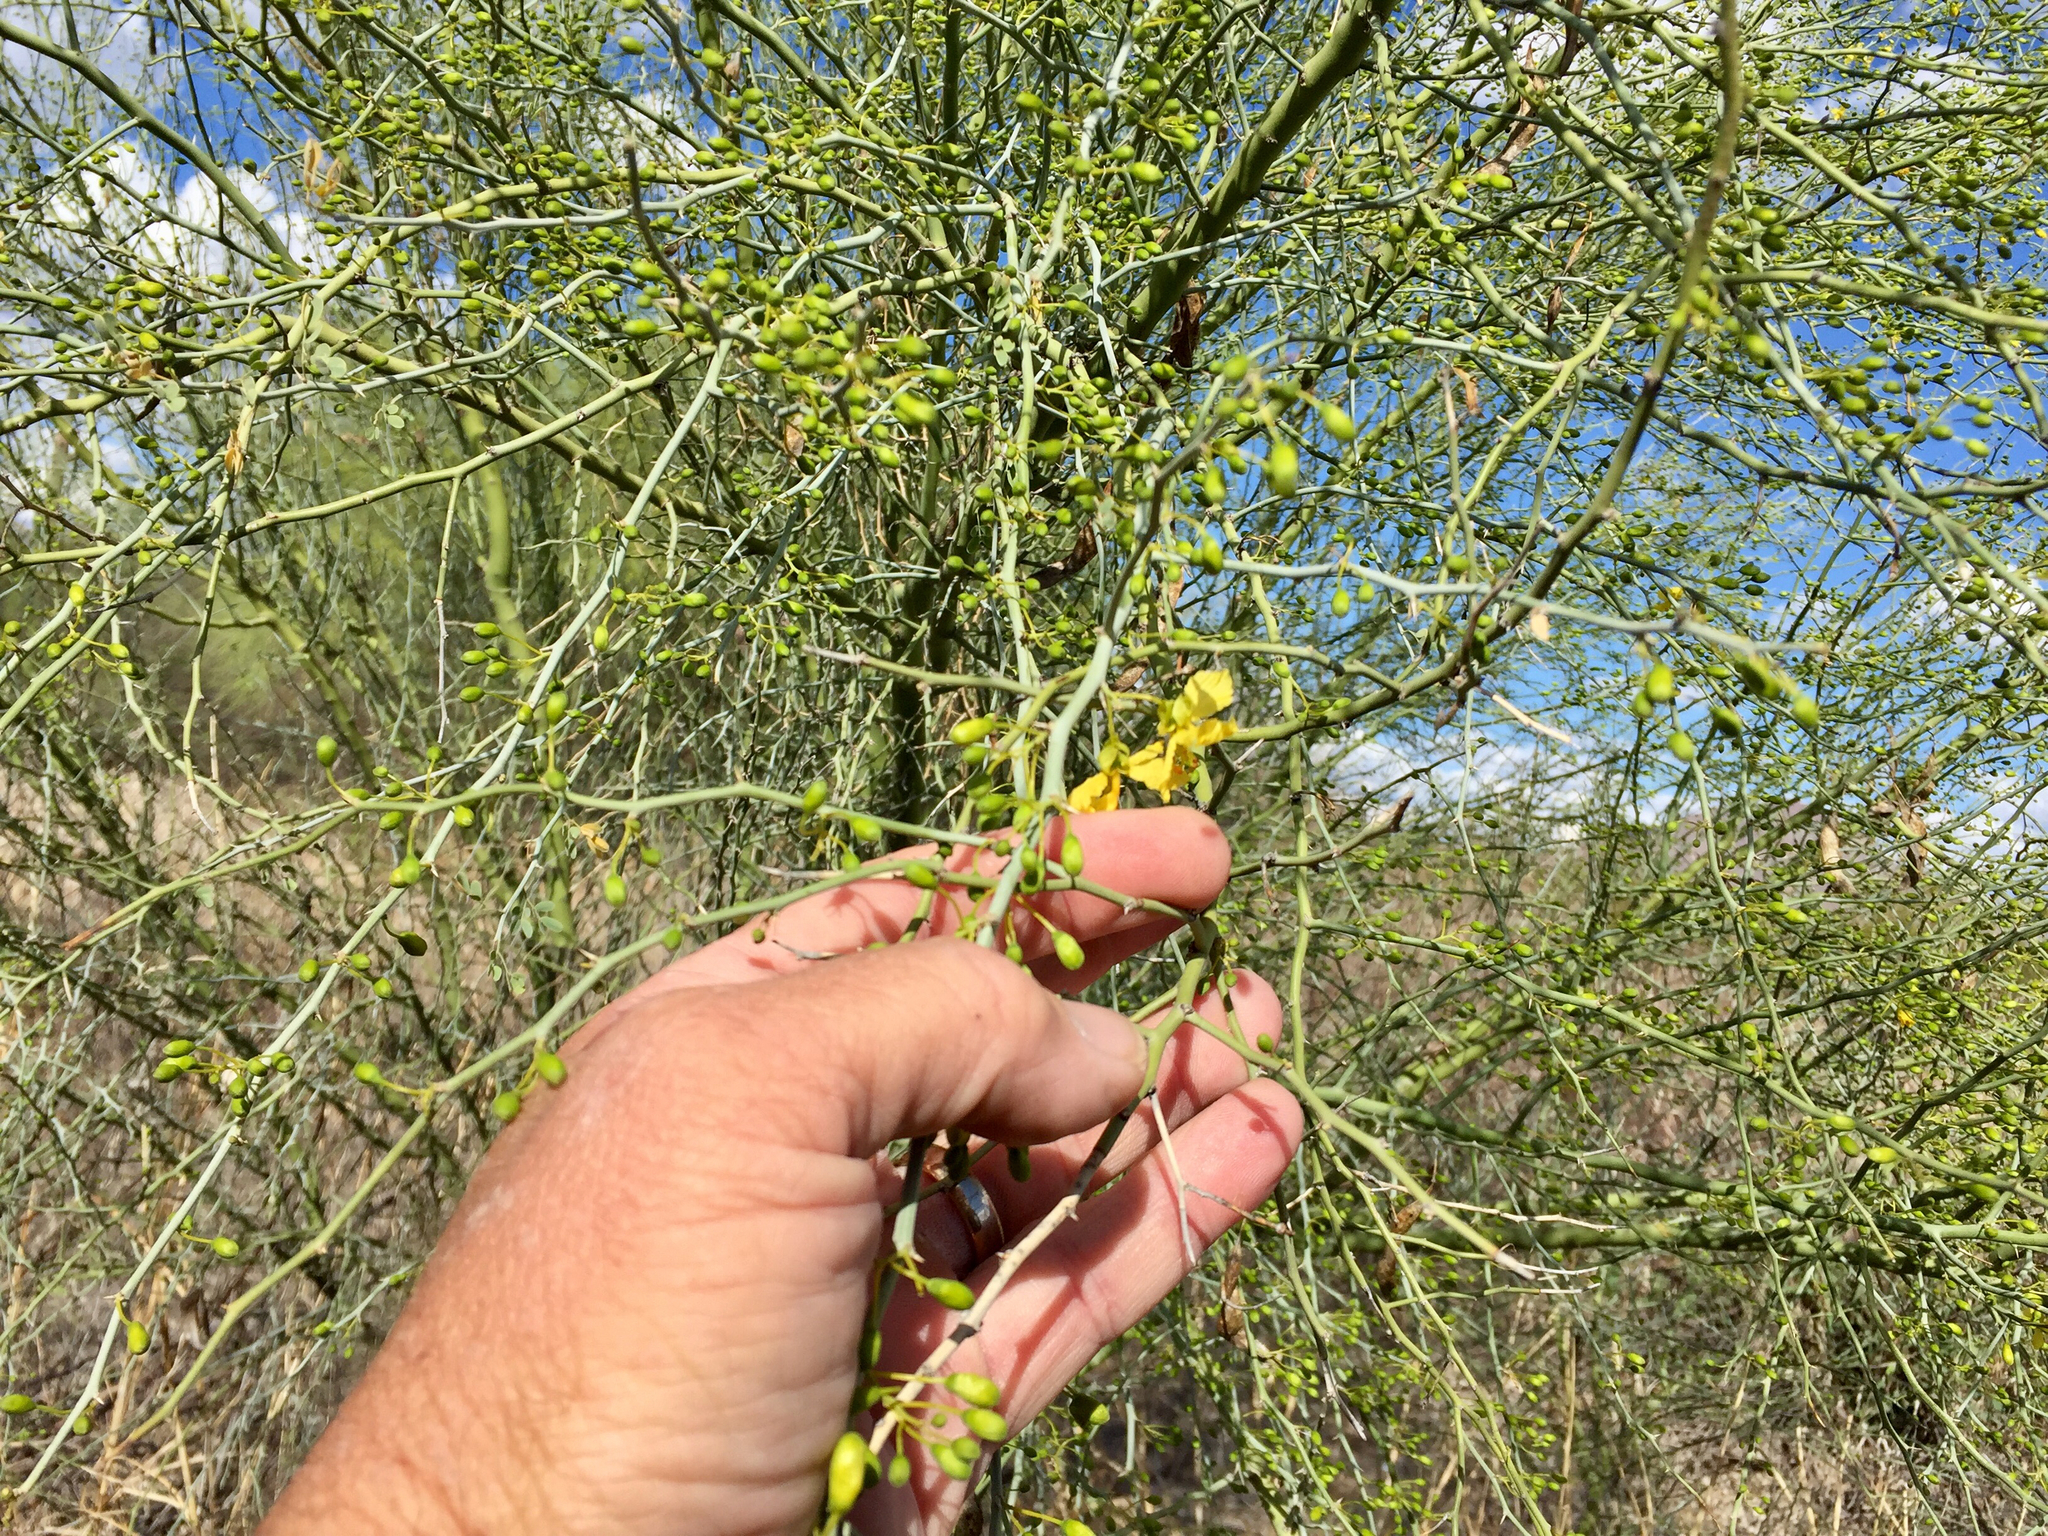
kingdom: Plantae
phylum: Tracheophyta
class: Magnoliopsida
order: Fabales
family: Fabaceae
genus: Parkinsonia
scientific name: Parkinsonia florida
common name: Blue paloverde
